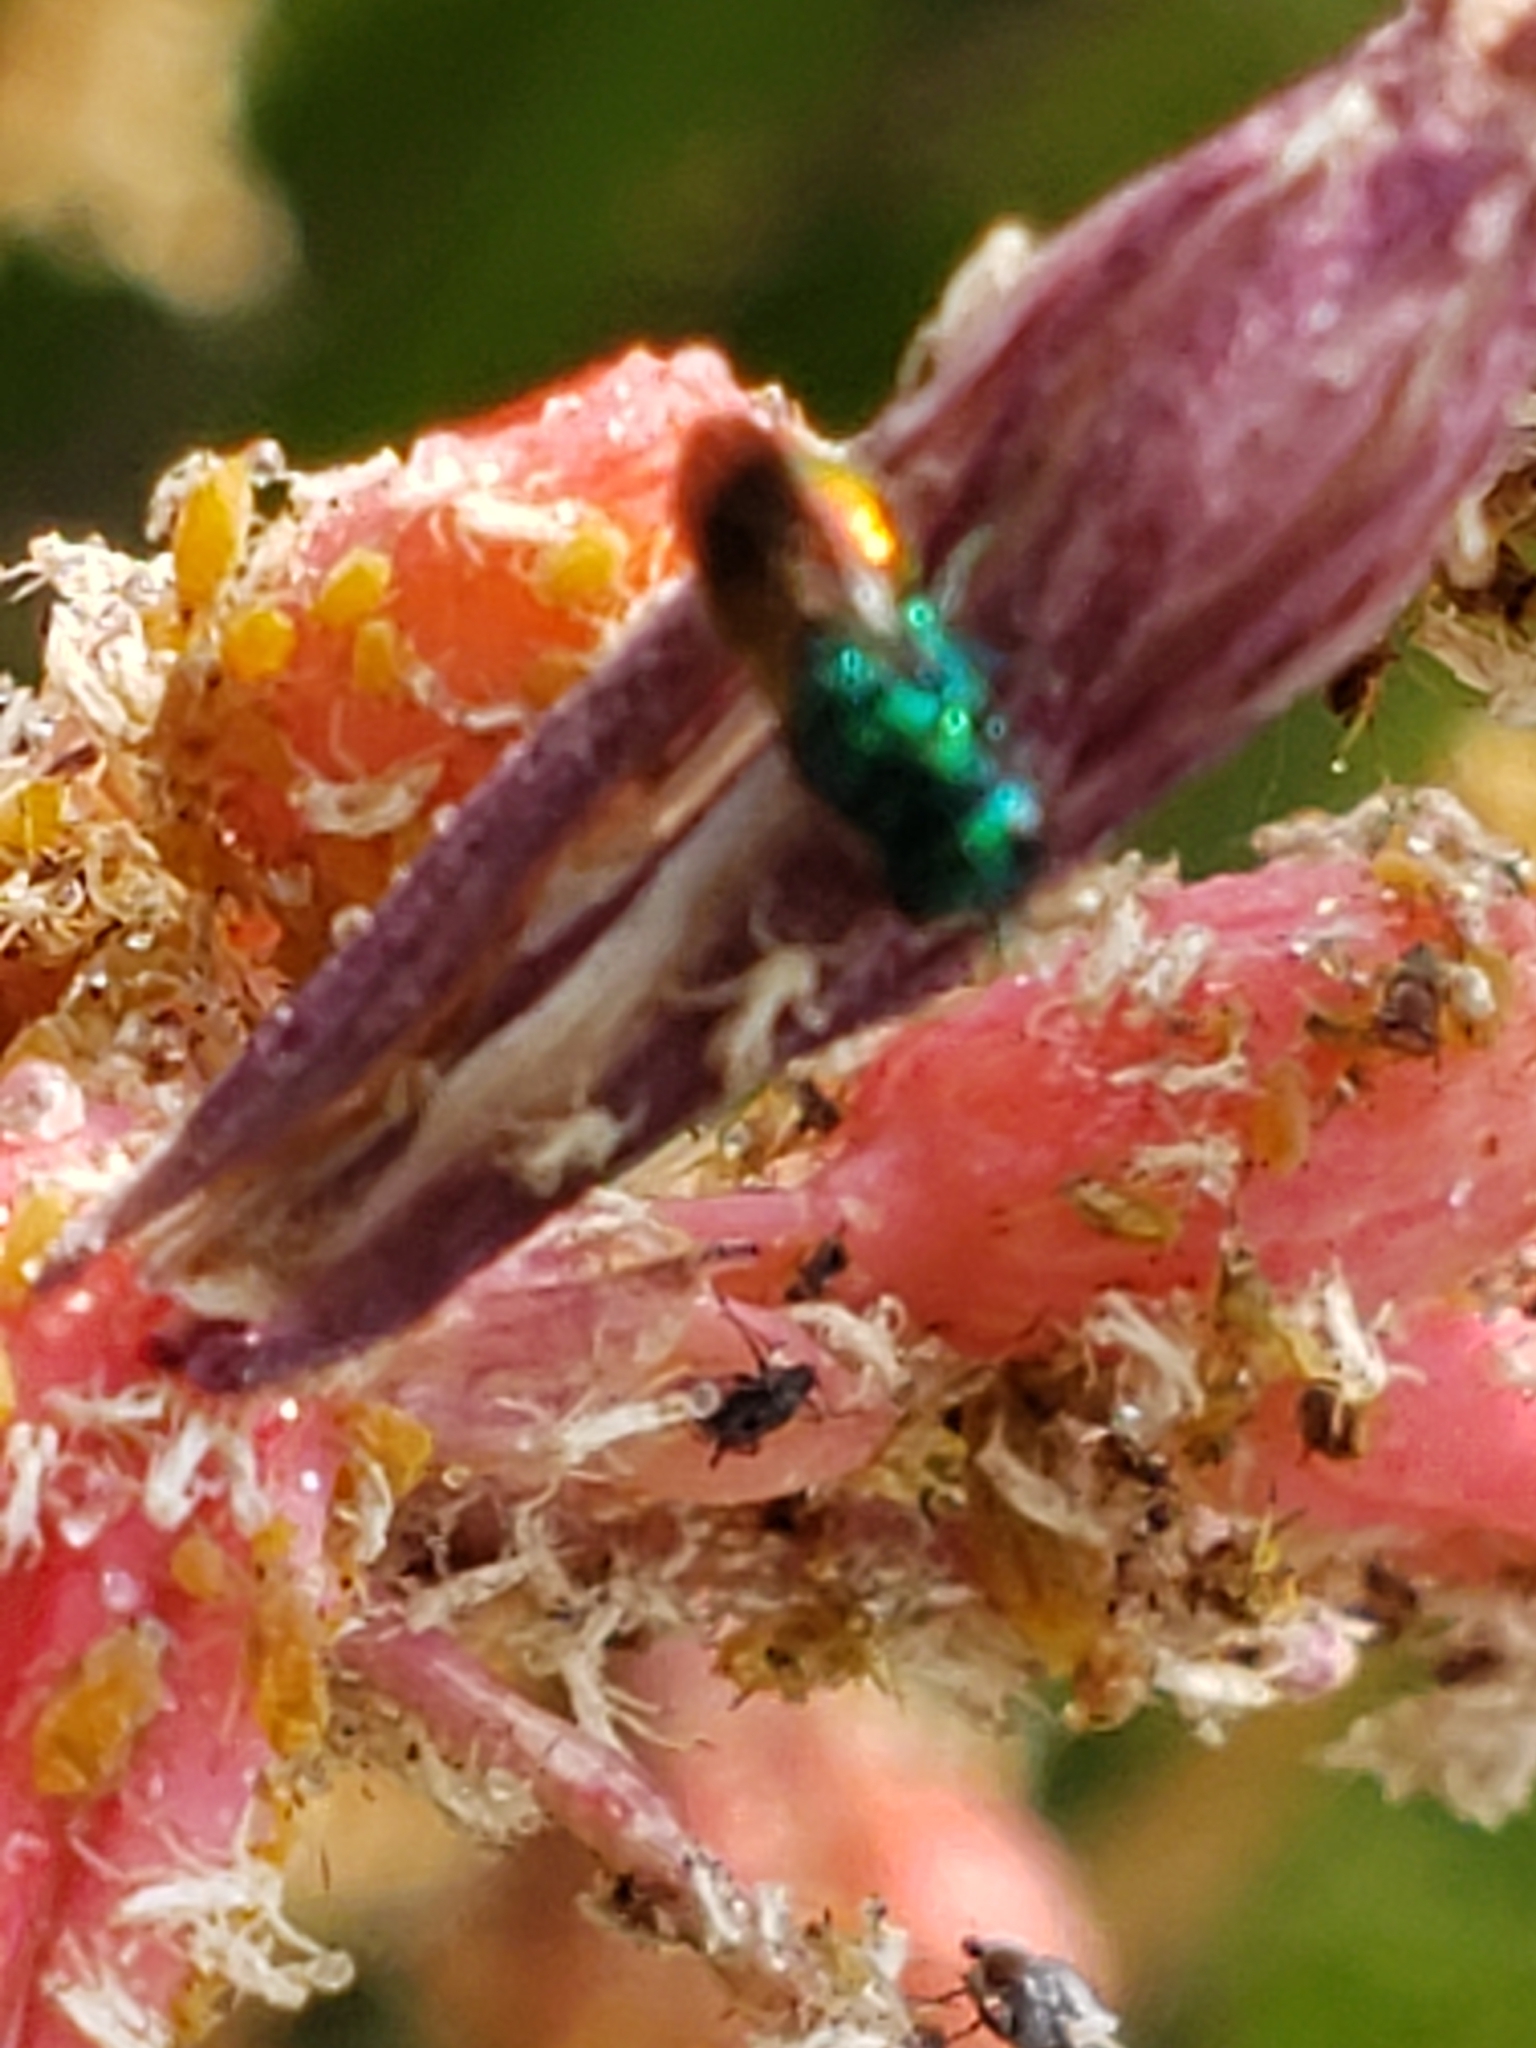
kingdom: Animalia
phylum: Arthropoda
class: Insecta
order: Hymenoptera
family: Chrysididae
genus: Pseudomalus
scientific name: Pseudomalus auratus
